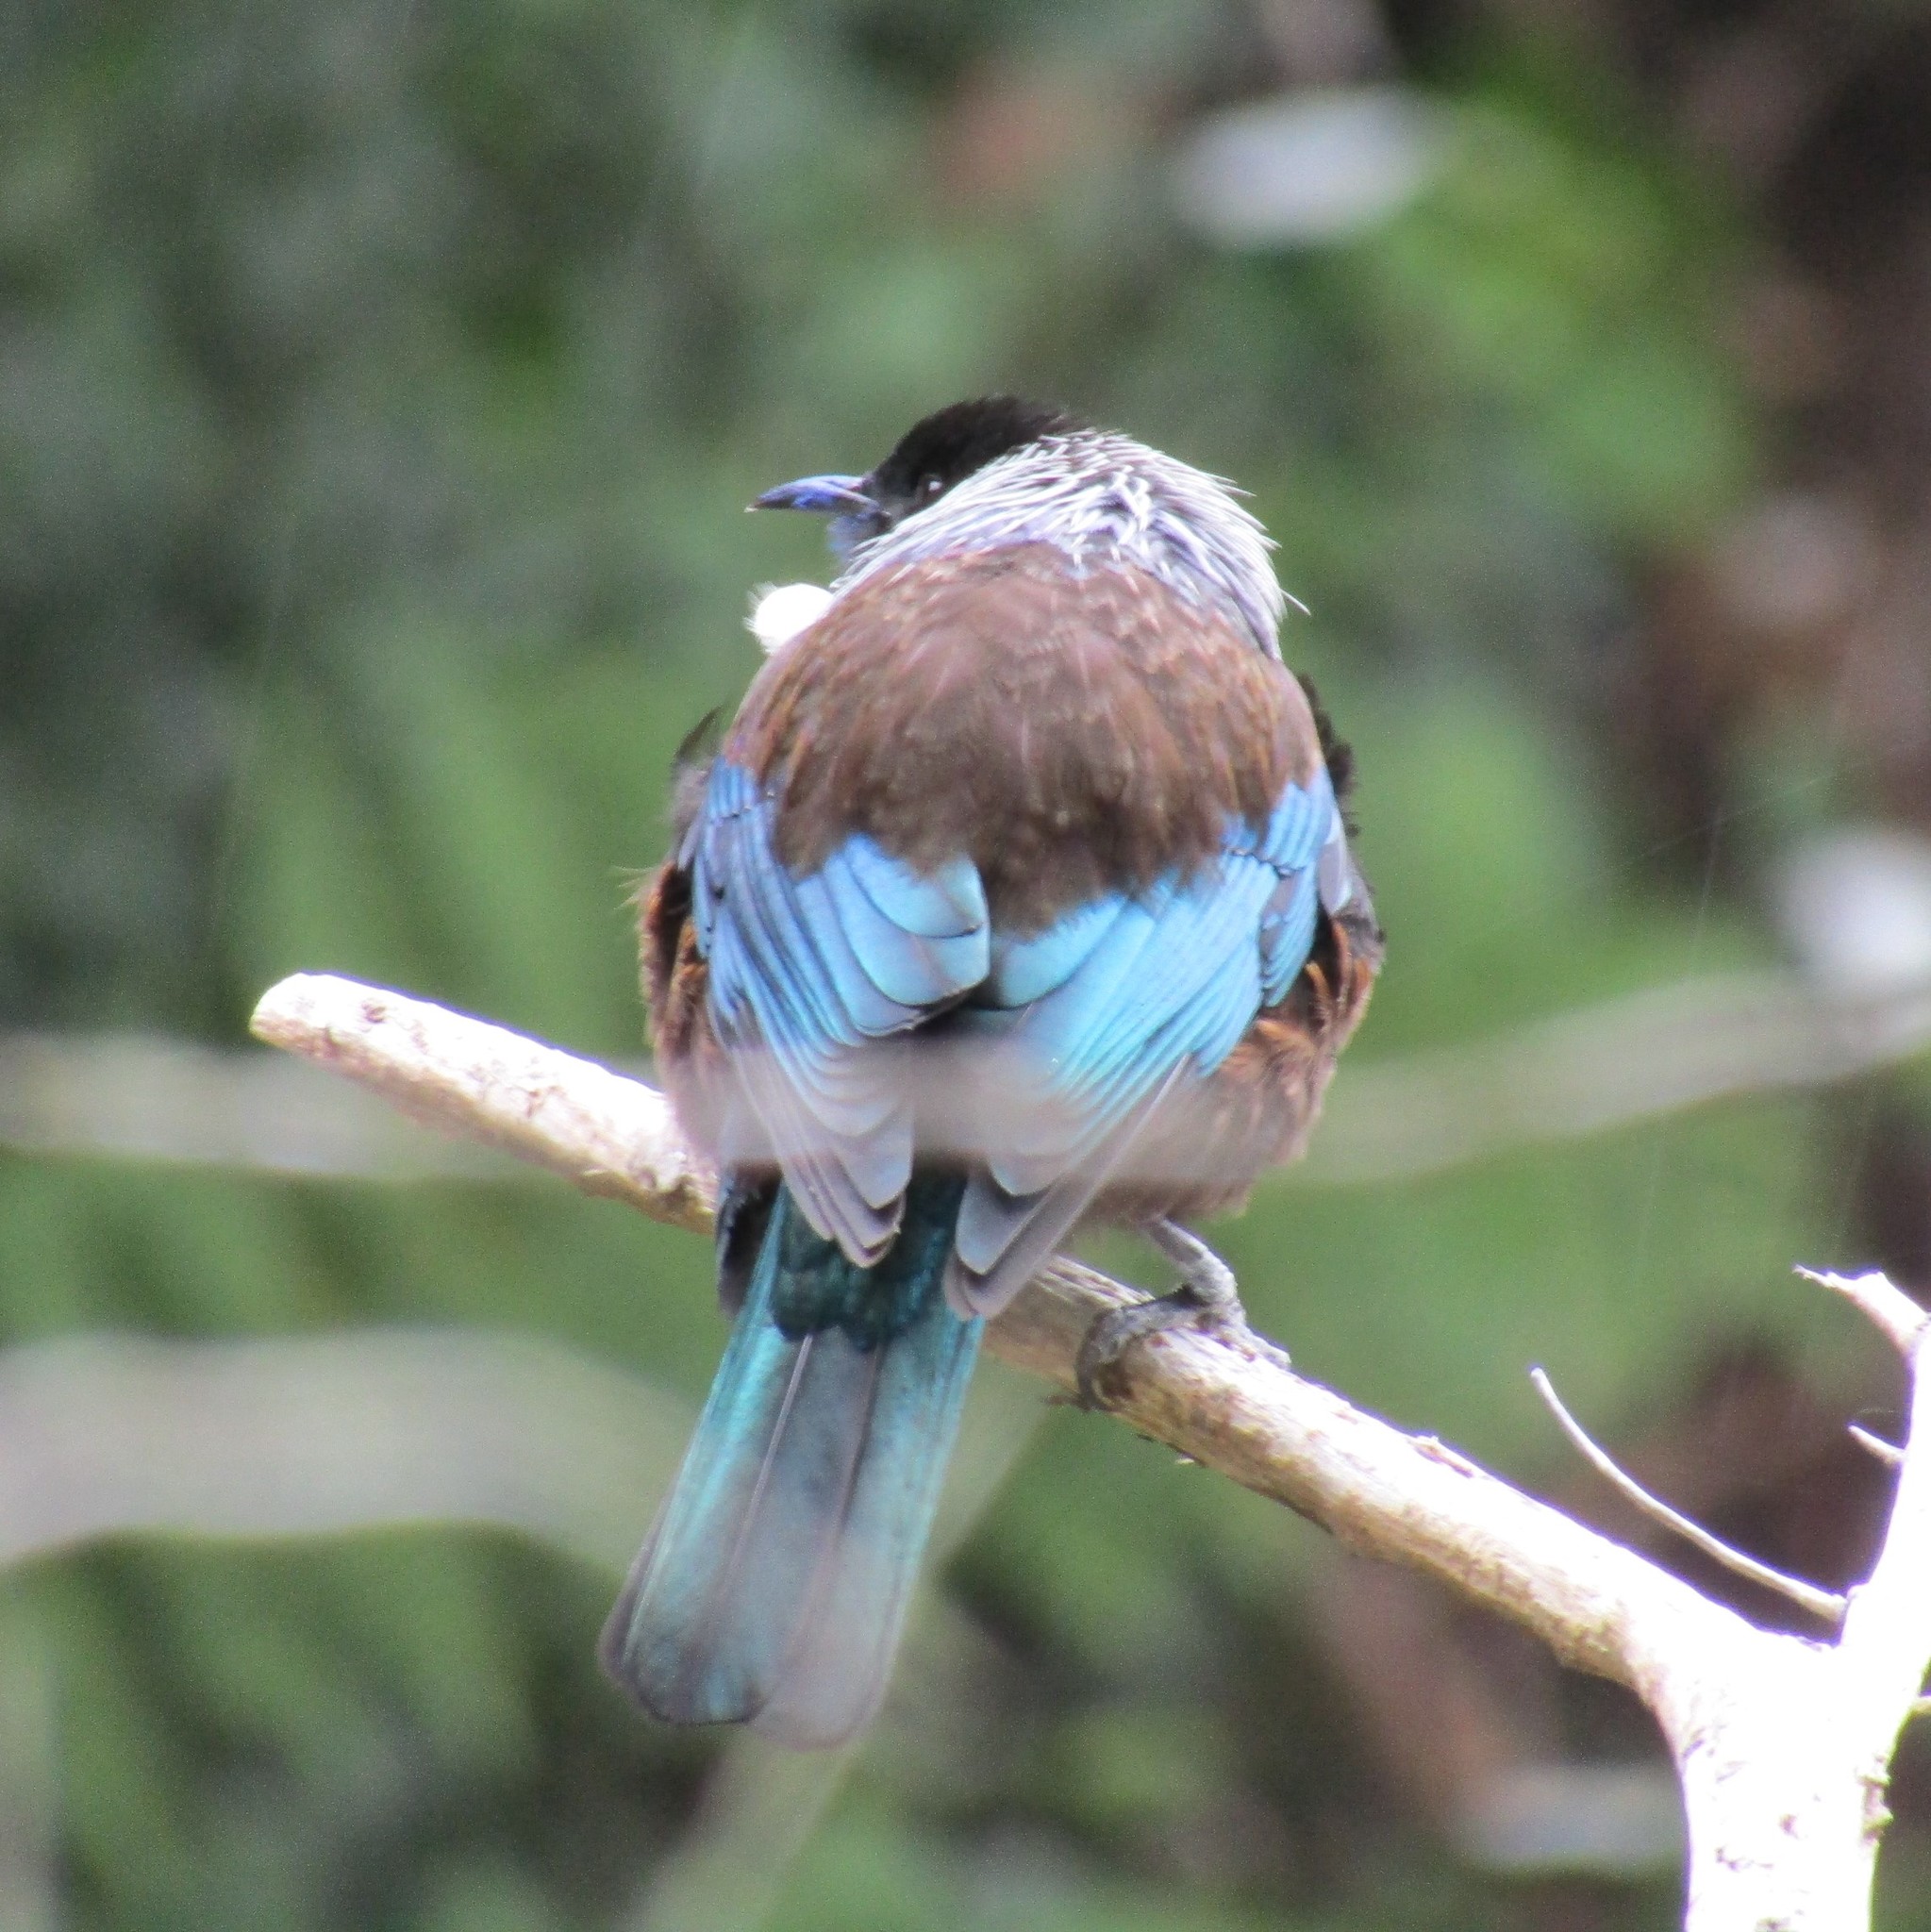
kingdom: Animalia
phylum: Chordata
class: Aves
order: Passeriformes
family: Meliphagidae
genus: Prosthemadera
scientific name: Prosthemadera novaeseelandiae
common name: Tui
